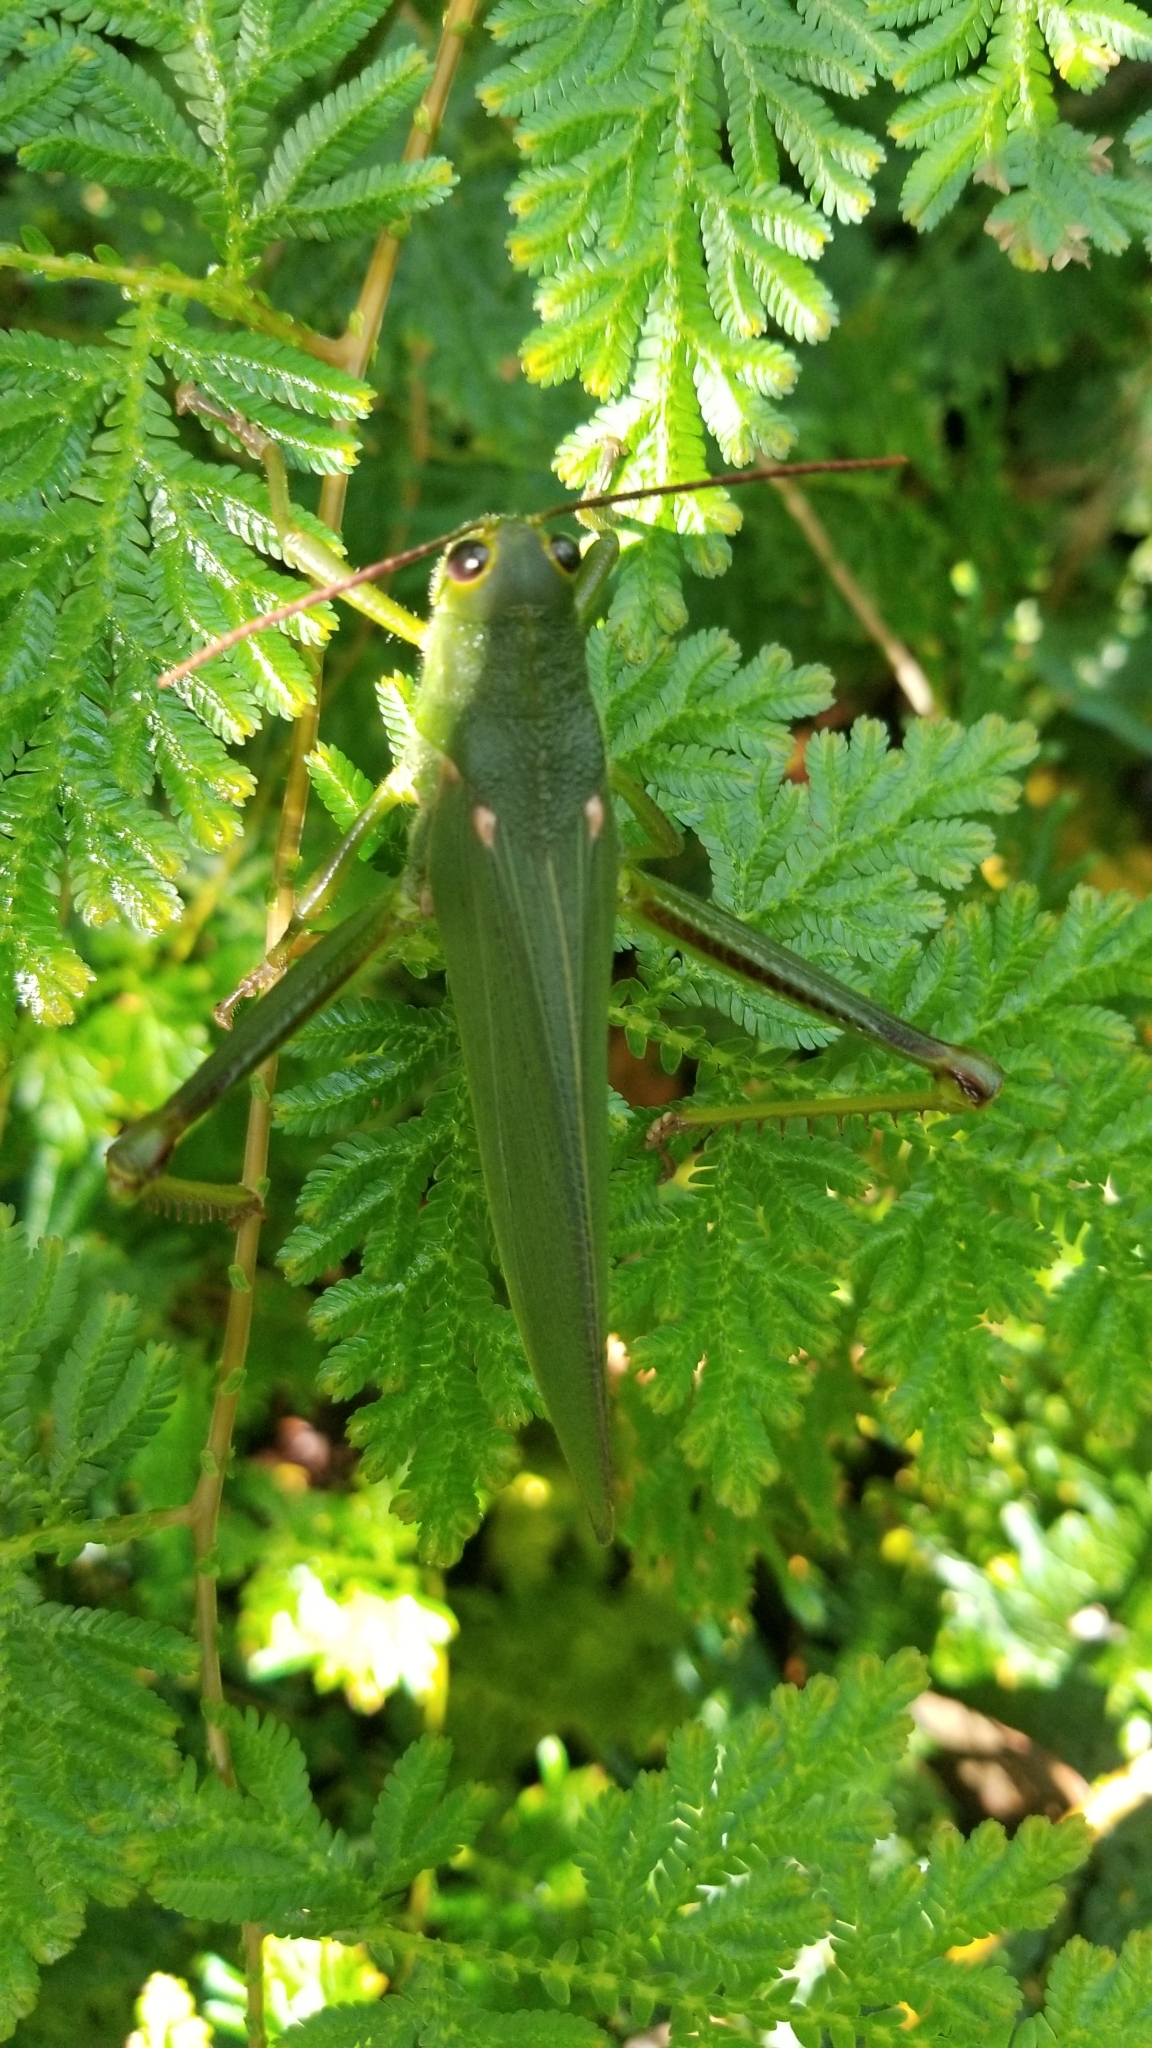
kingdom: Animalia
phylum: Arthropoda
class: Insecta
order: Orthoptera
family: Romaleidae
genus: Titanacris
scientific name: Titanacris ornatifemur
